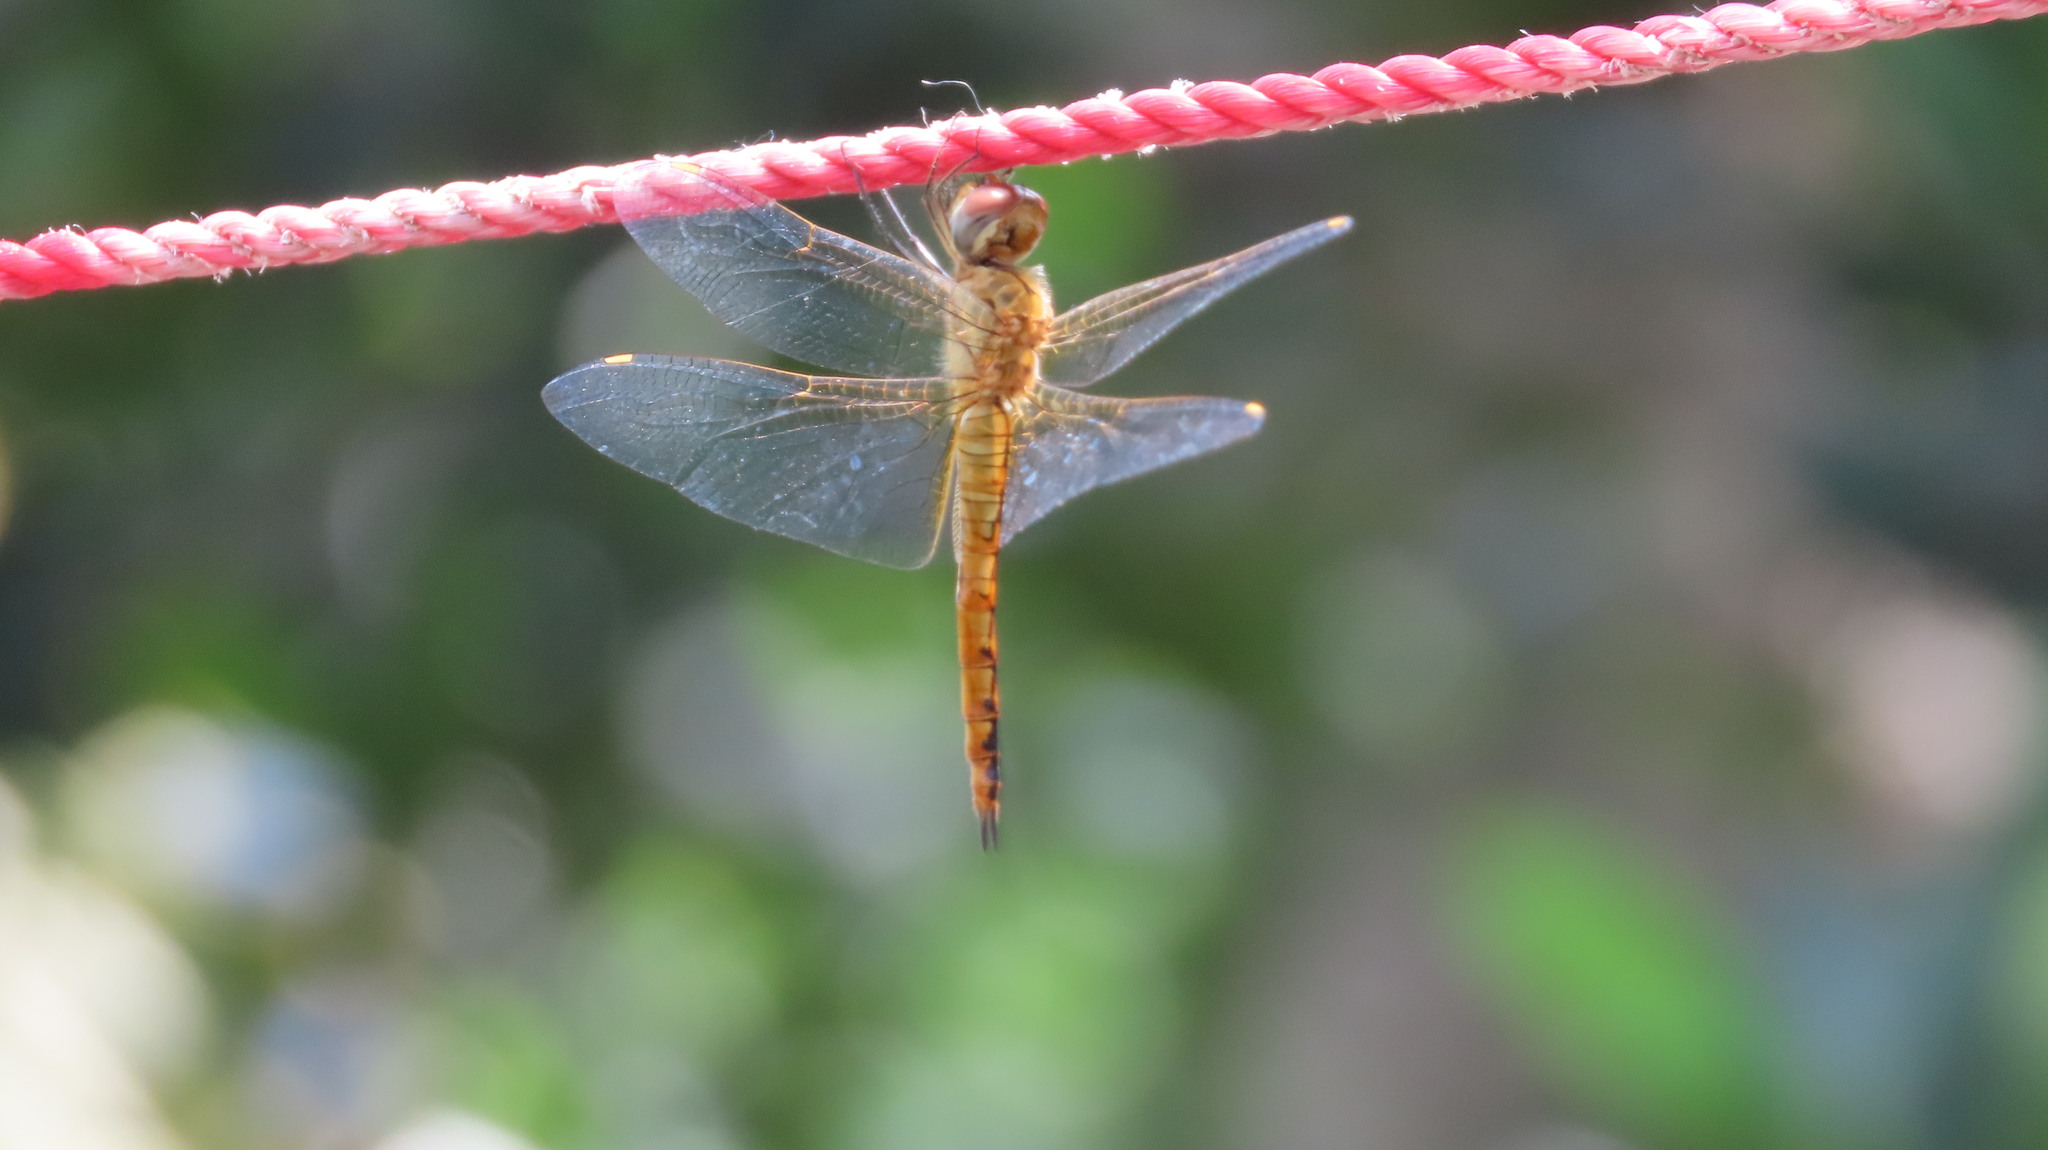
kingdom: Animalia
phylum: Arthropoda
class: Insecta
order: Odonata
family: Libellulidae
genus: Pantala
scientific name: Pantala flavescens
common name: Wandering glider
